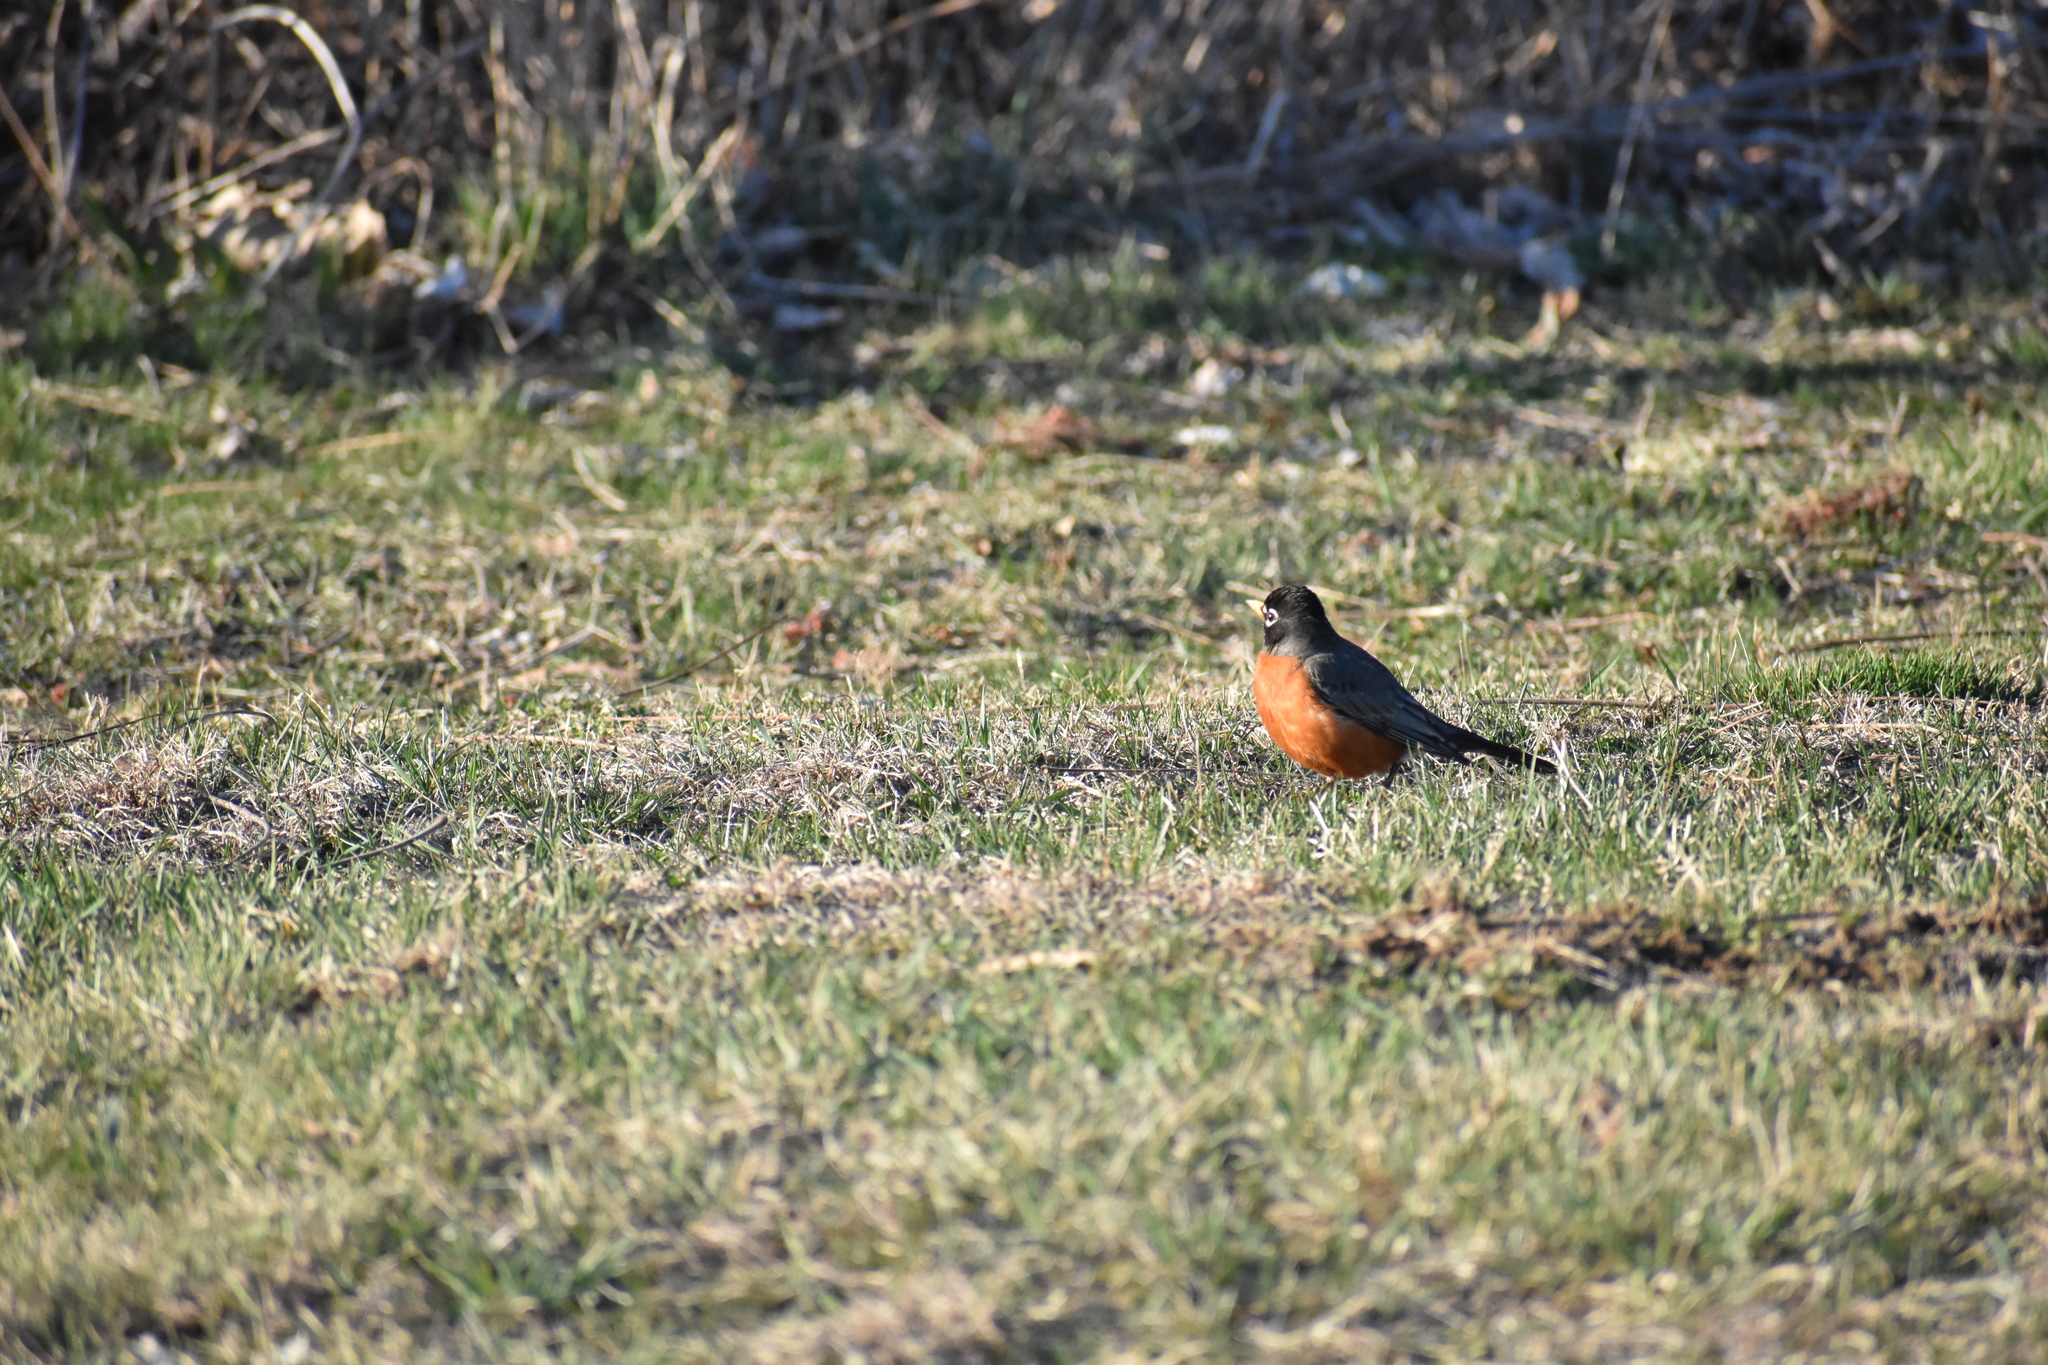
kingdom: Animalia
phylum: Chordata
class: Aves
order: Passeriformes
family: Turdidae
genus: Turdus
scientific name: Turdus migratorius
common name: American robin
